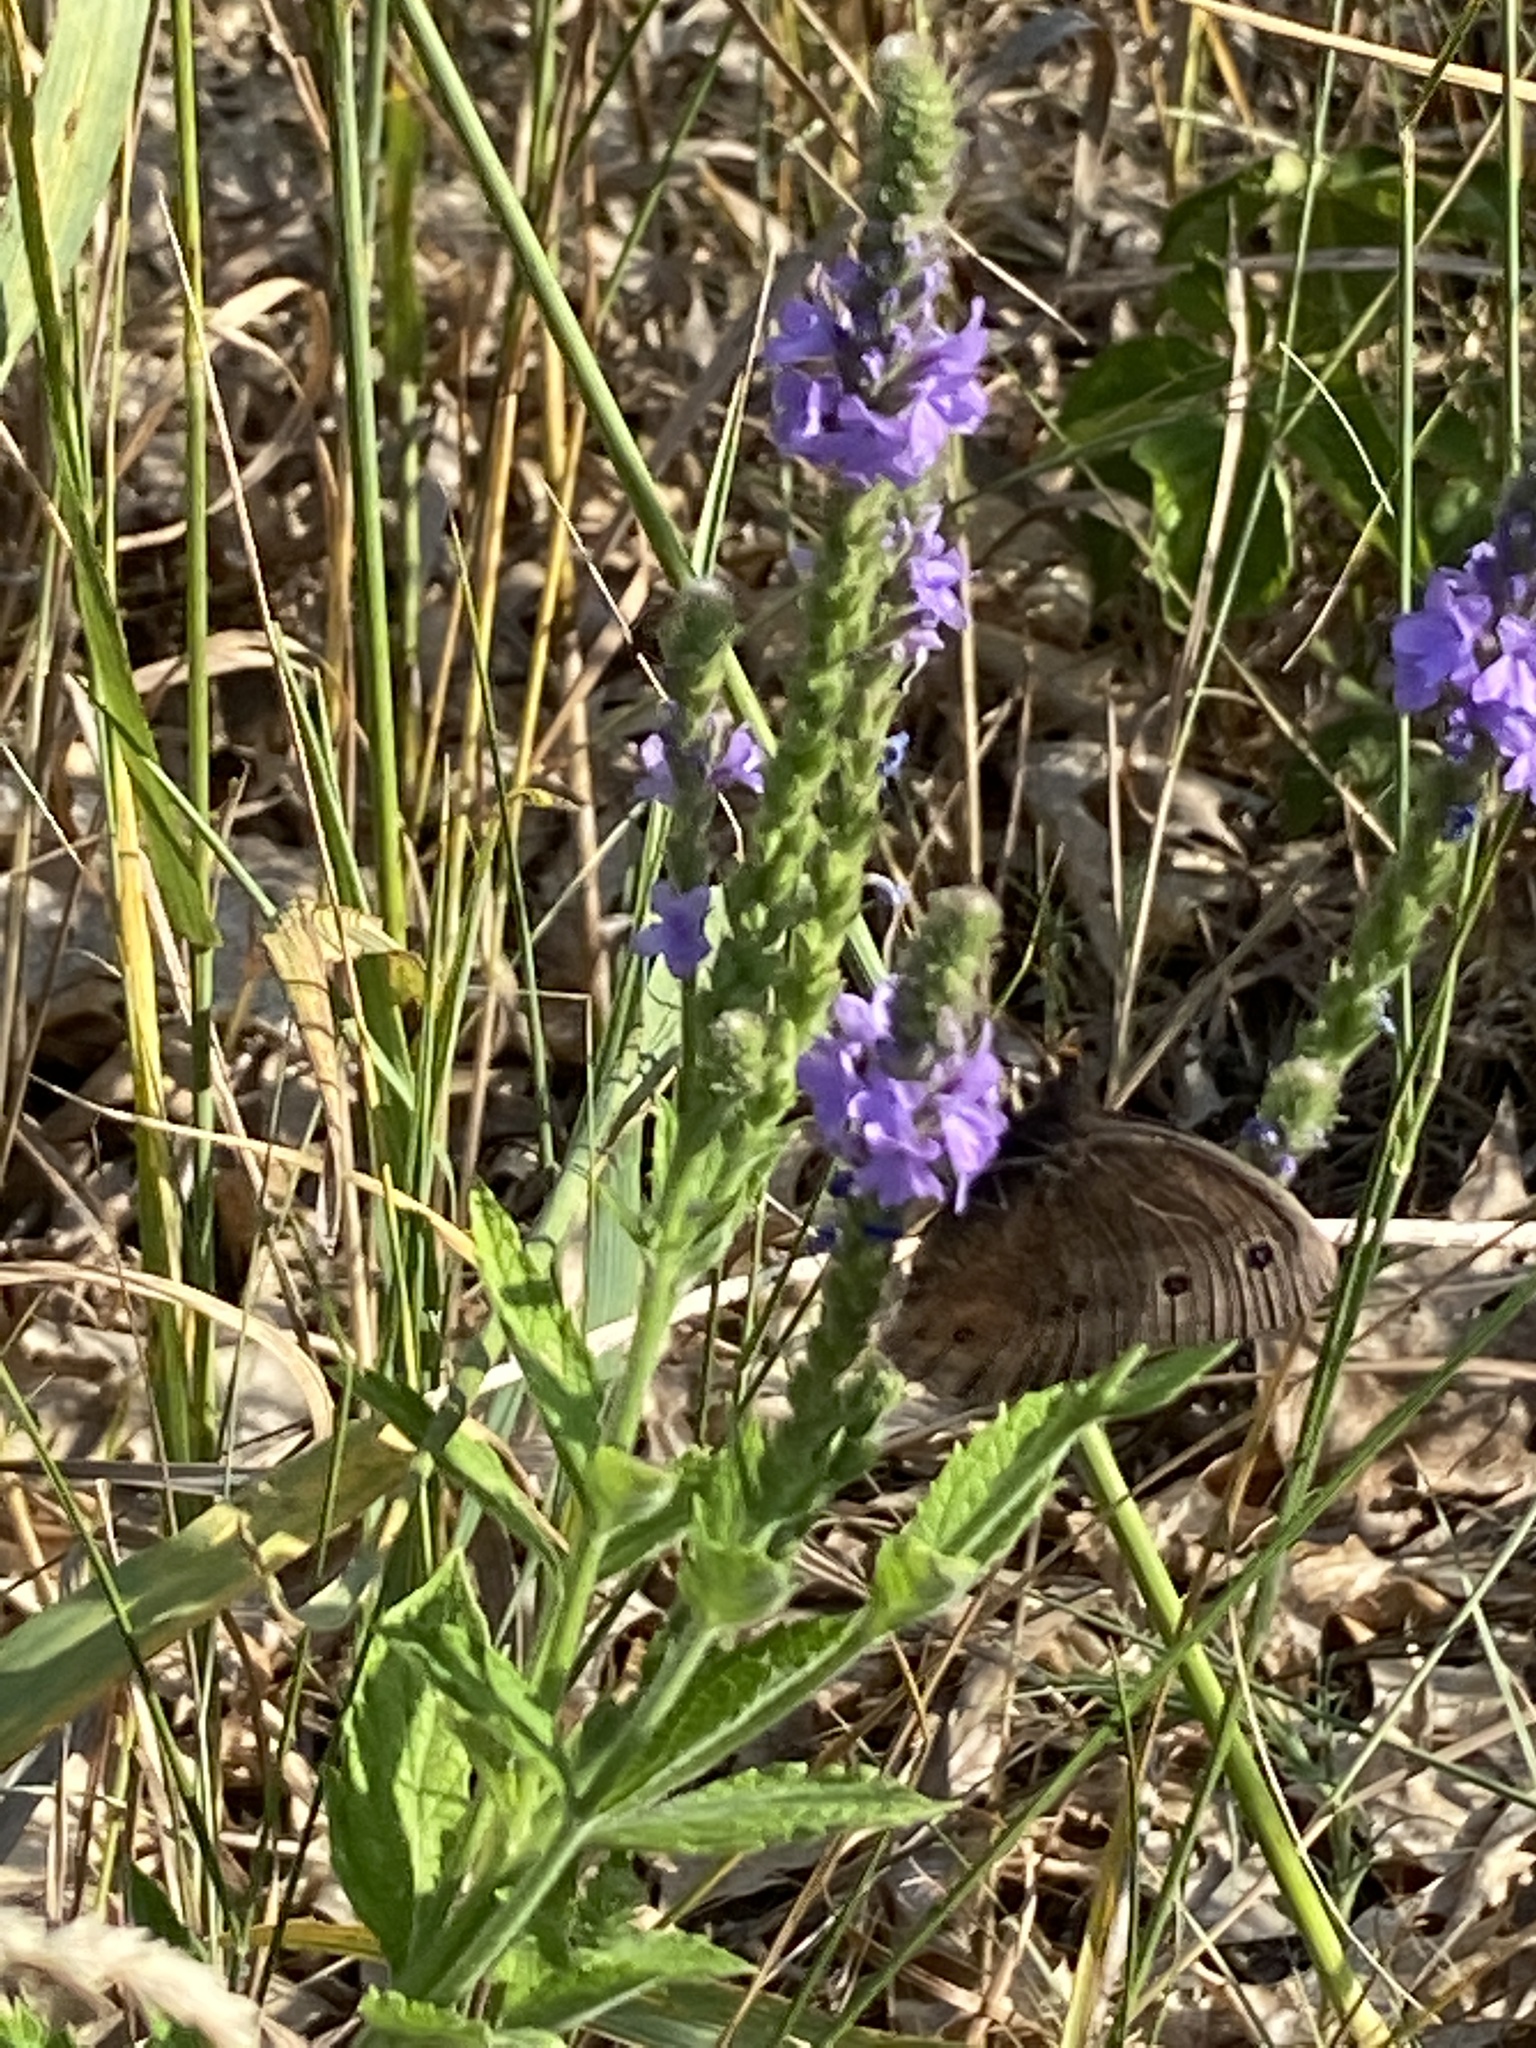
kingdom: Animalia
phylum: Arthropoda
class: Insecta
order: Lepidoptera
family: Nymphalidae
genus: Cercyonis
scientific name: Cercyonis pegala
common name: Common wood-nymph
